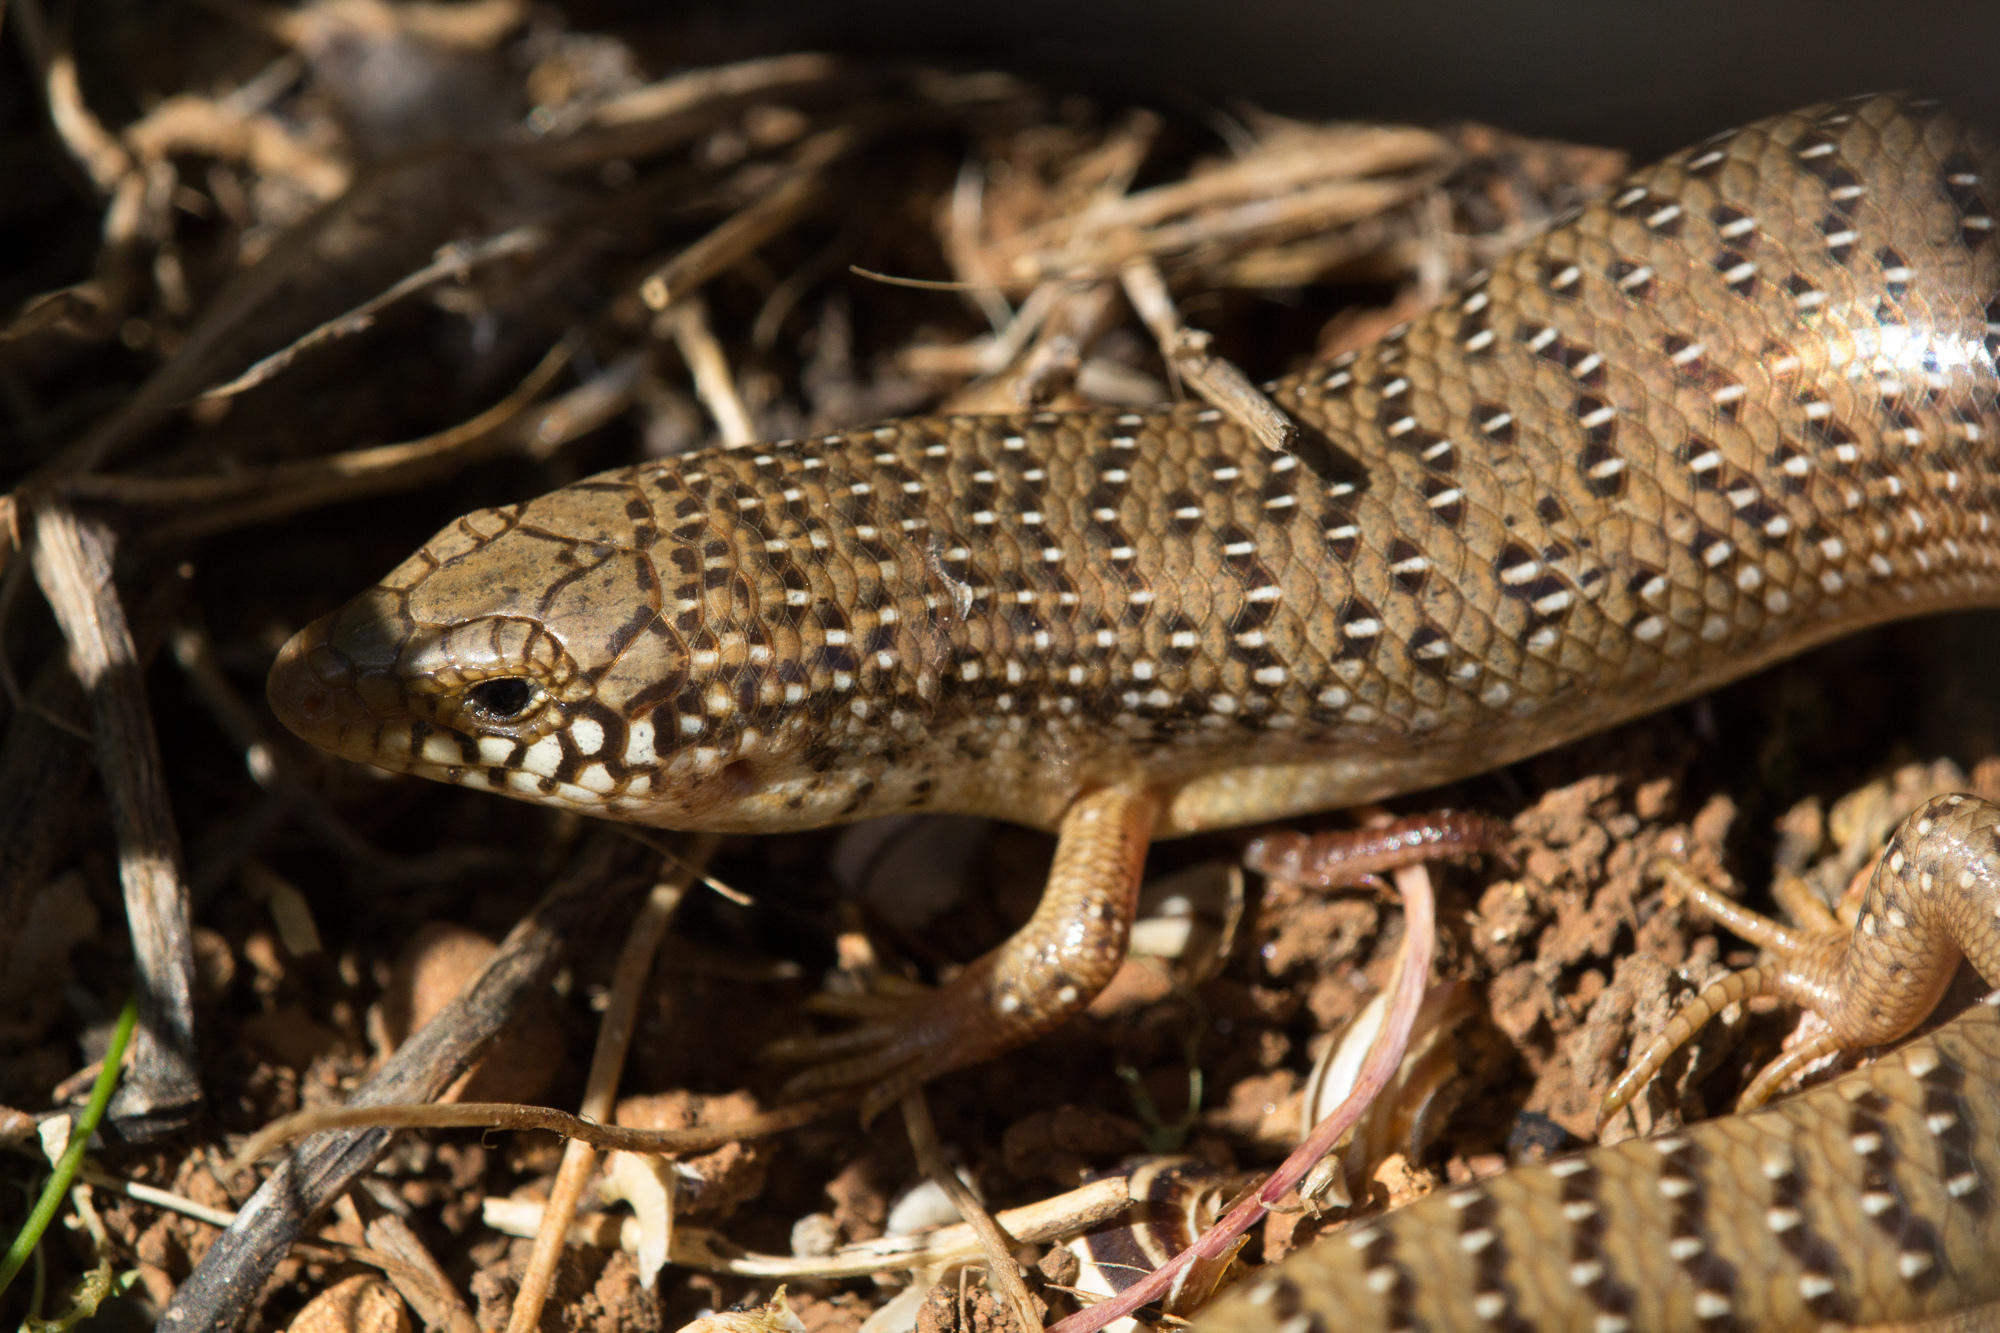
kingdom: Animalia
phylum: Chordata
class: Squamata
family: Scincidae
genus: Chalcides
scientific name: Chalcides ocellatus
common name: Ocellated skink
